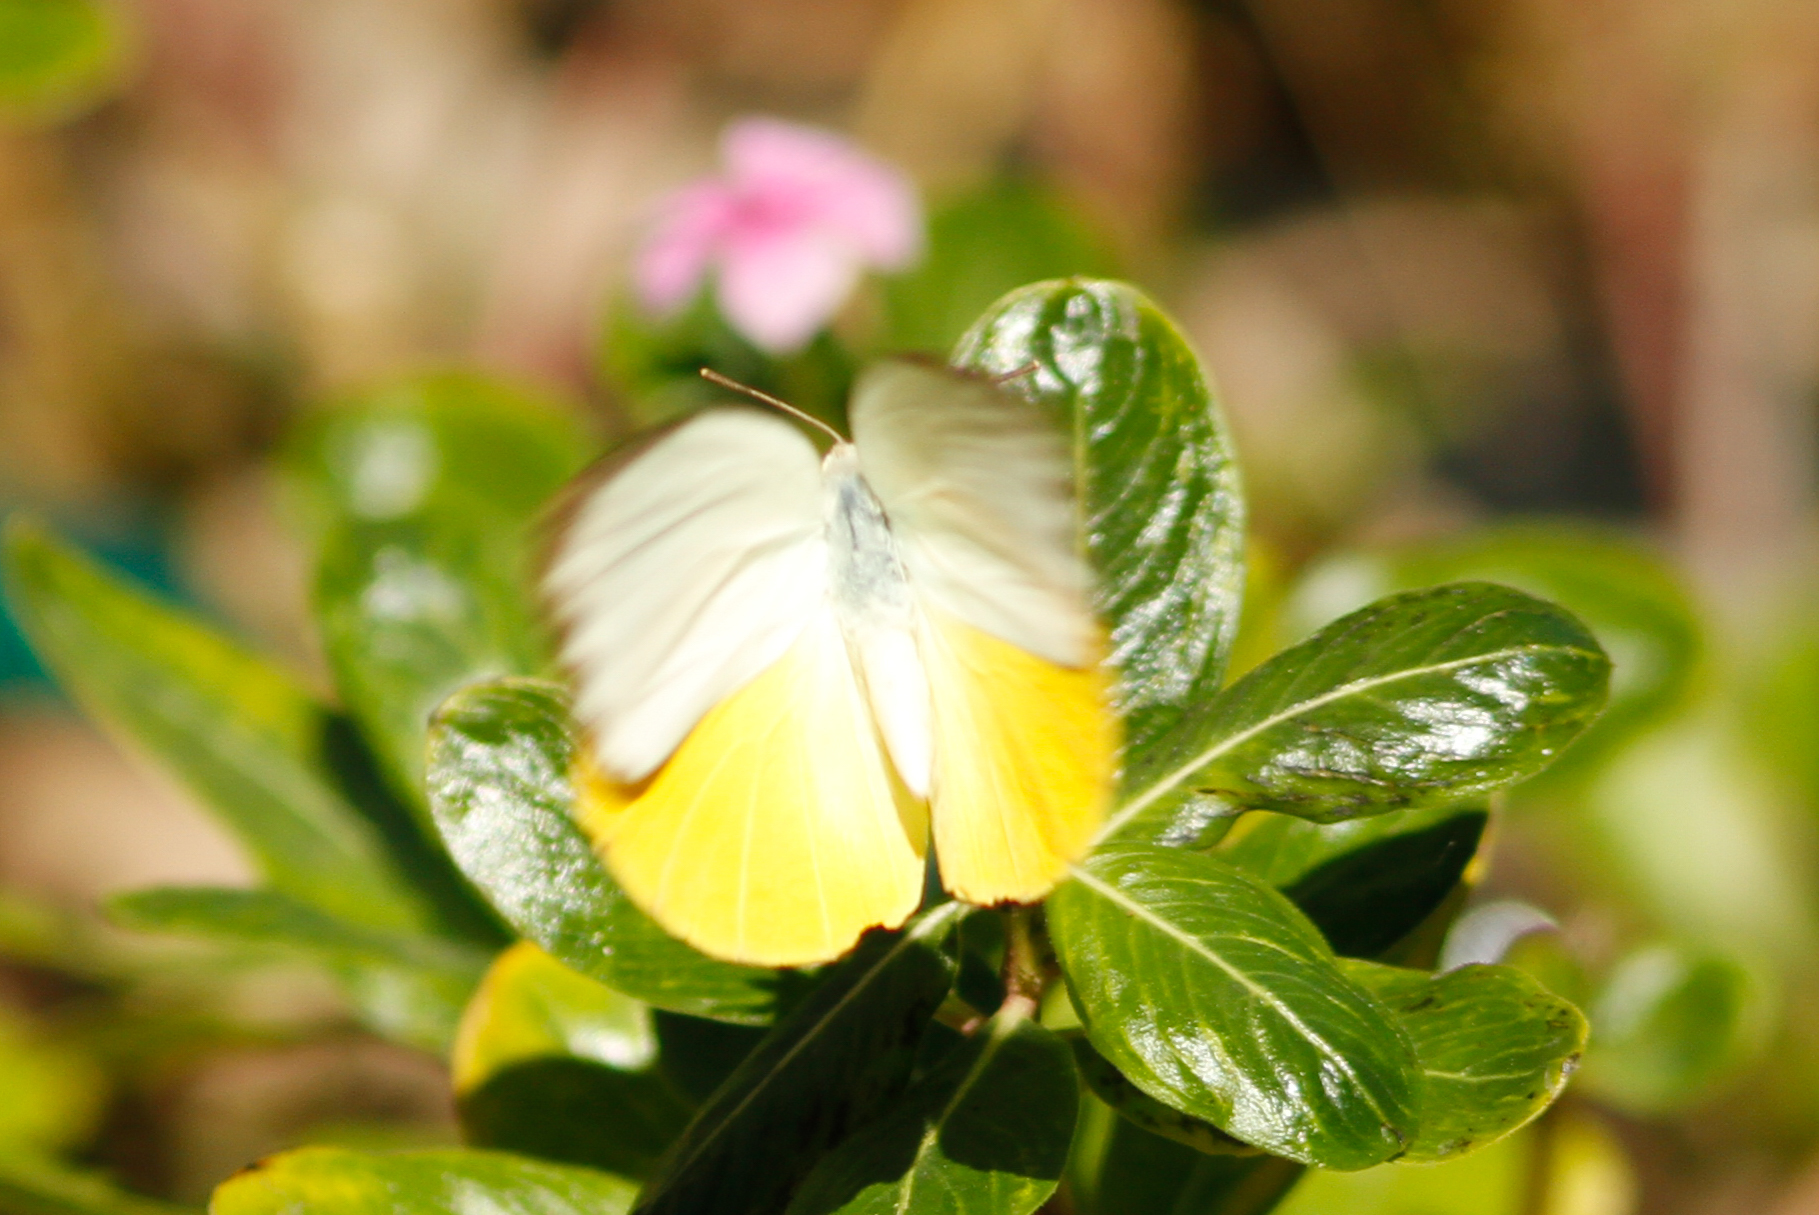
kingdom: Animalia
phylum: Arthropoda
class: Insecta
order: Lepidoptera
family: Pieridae
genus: Catopsilia
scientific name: Catopsilia scylla
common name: Orange emigrant
